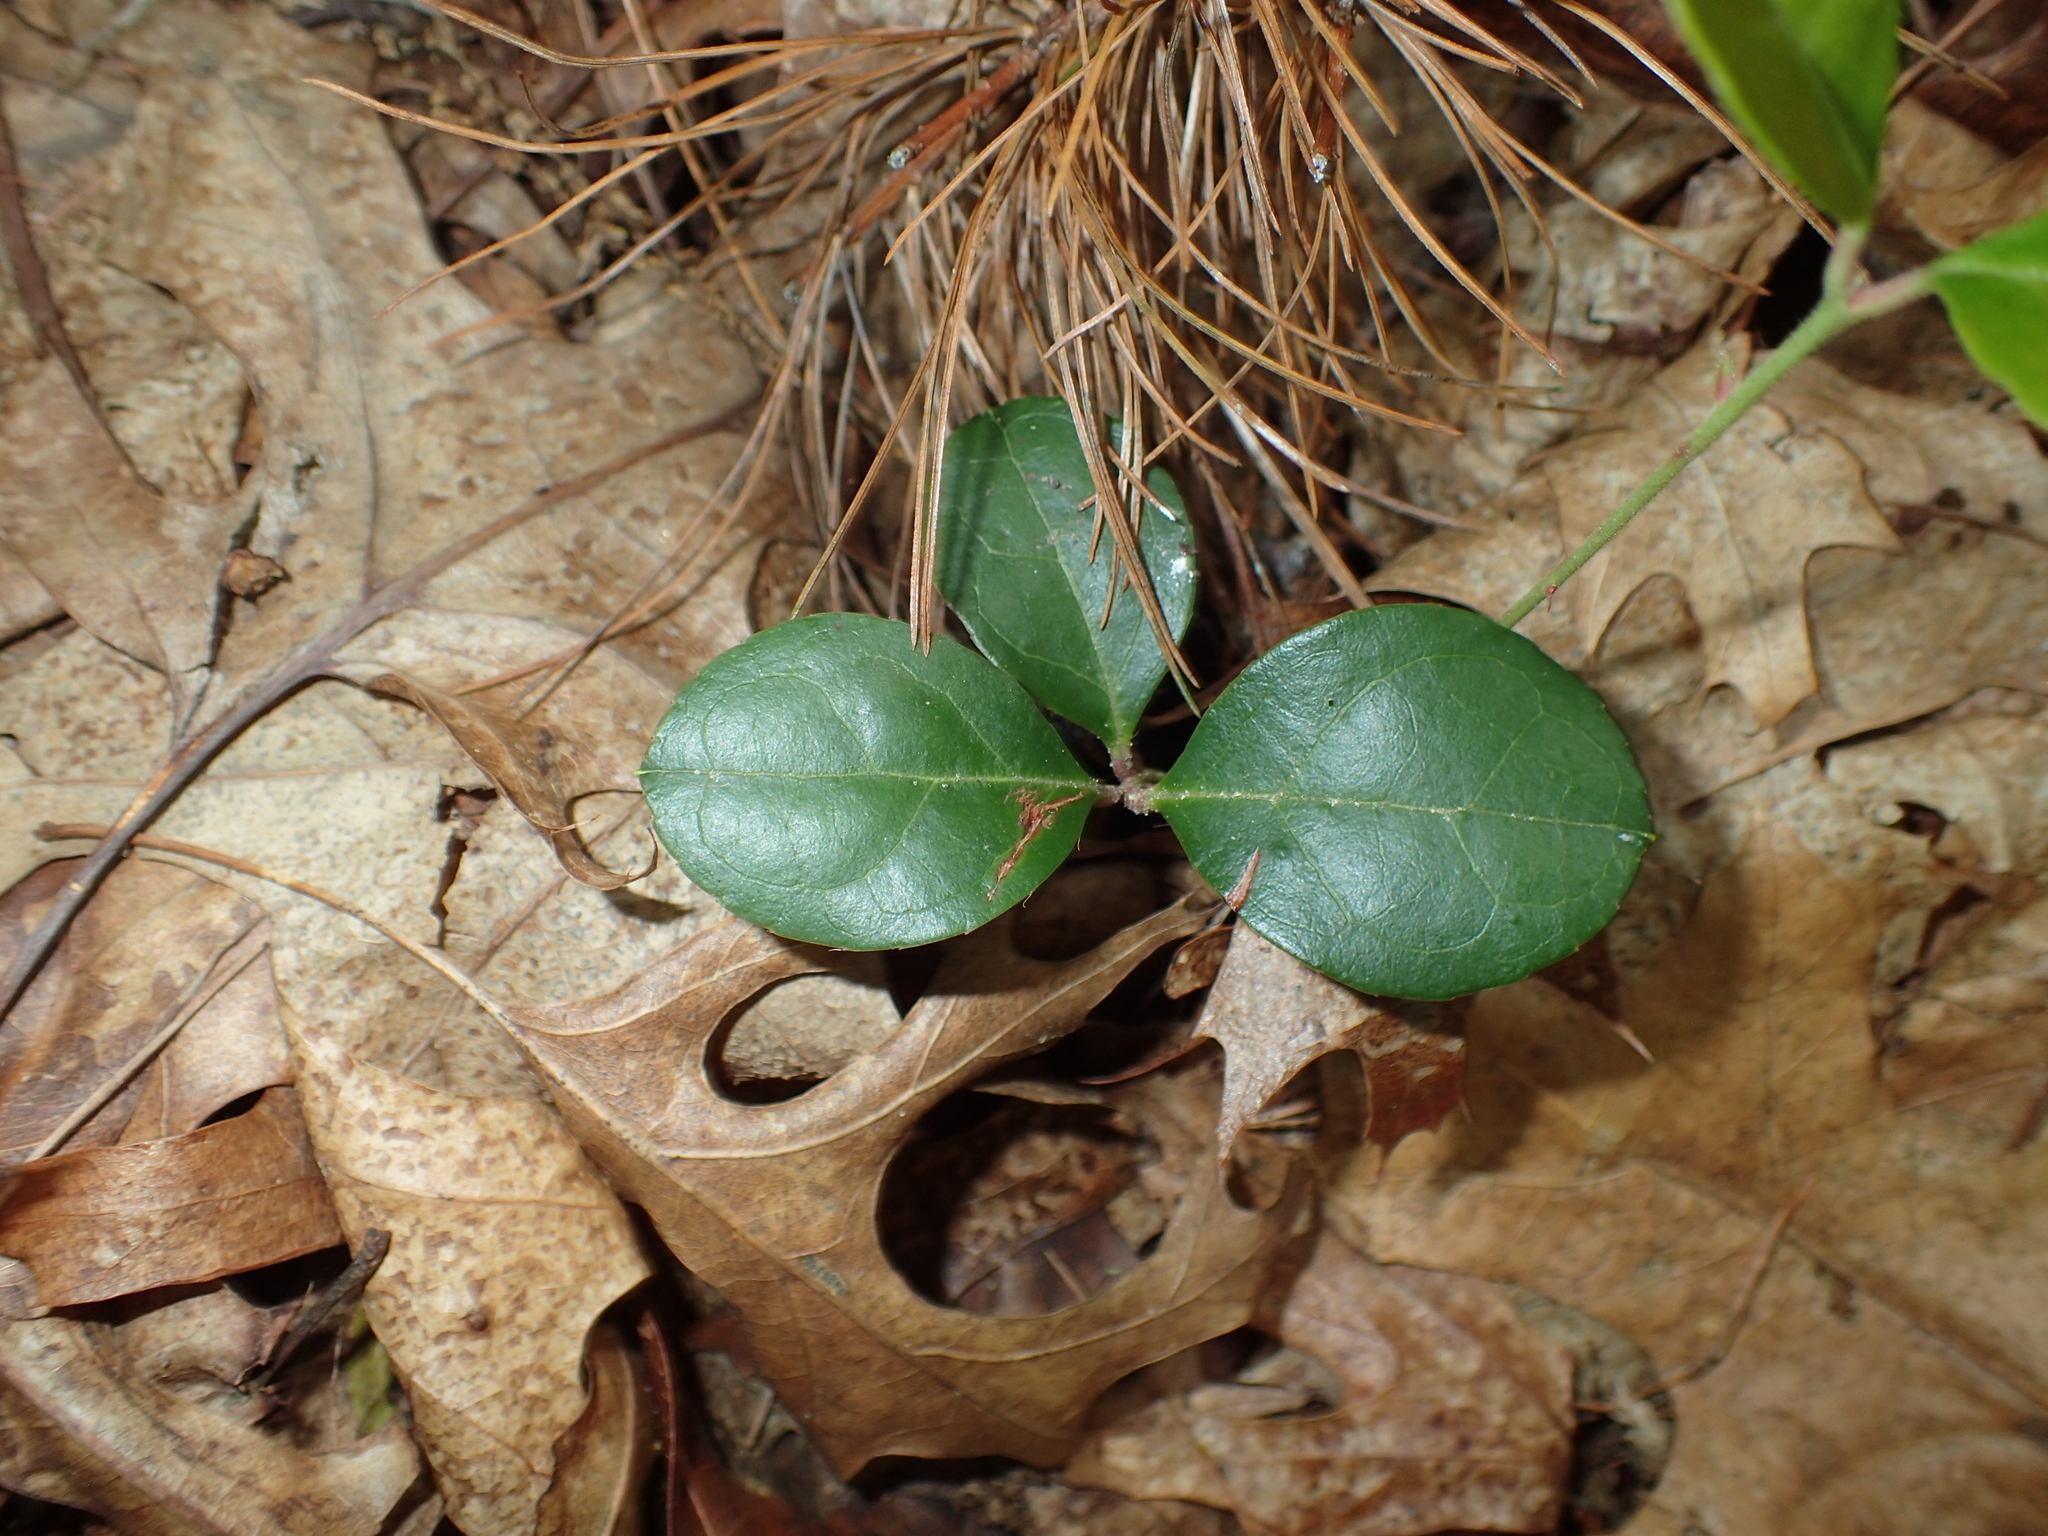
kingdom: Plantae
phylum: Tracheophyta
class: Magnoliopsida
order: Ericales
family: Ericaceae
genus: Gaultheria
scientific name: Gaultheria procumbens
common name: Checkerberry
